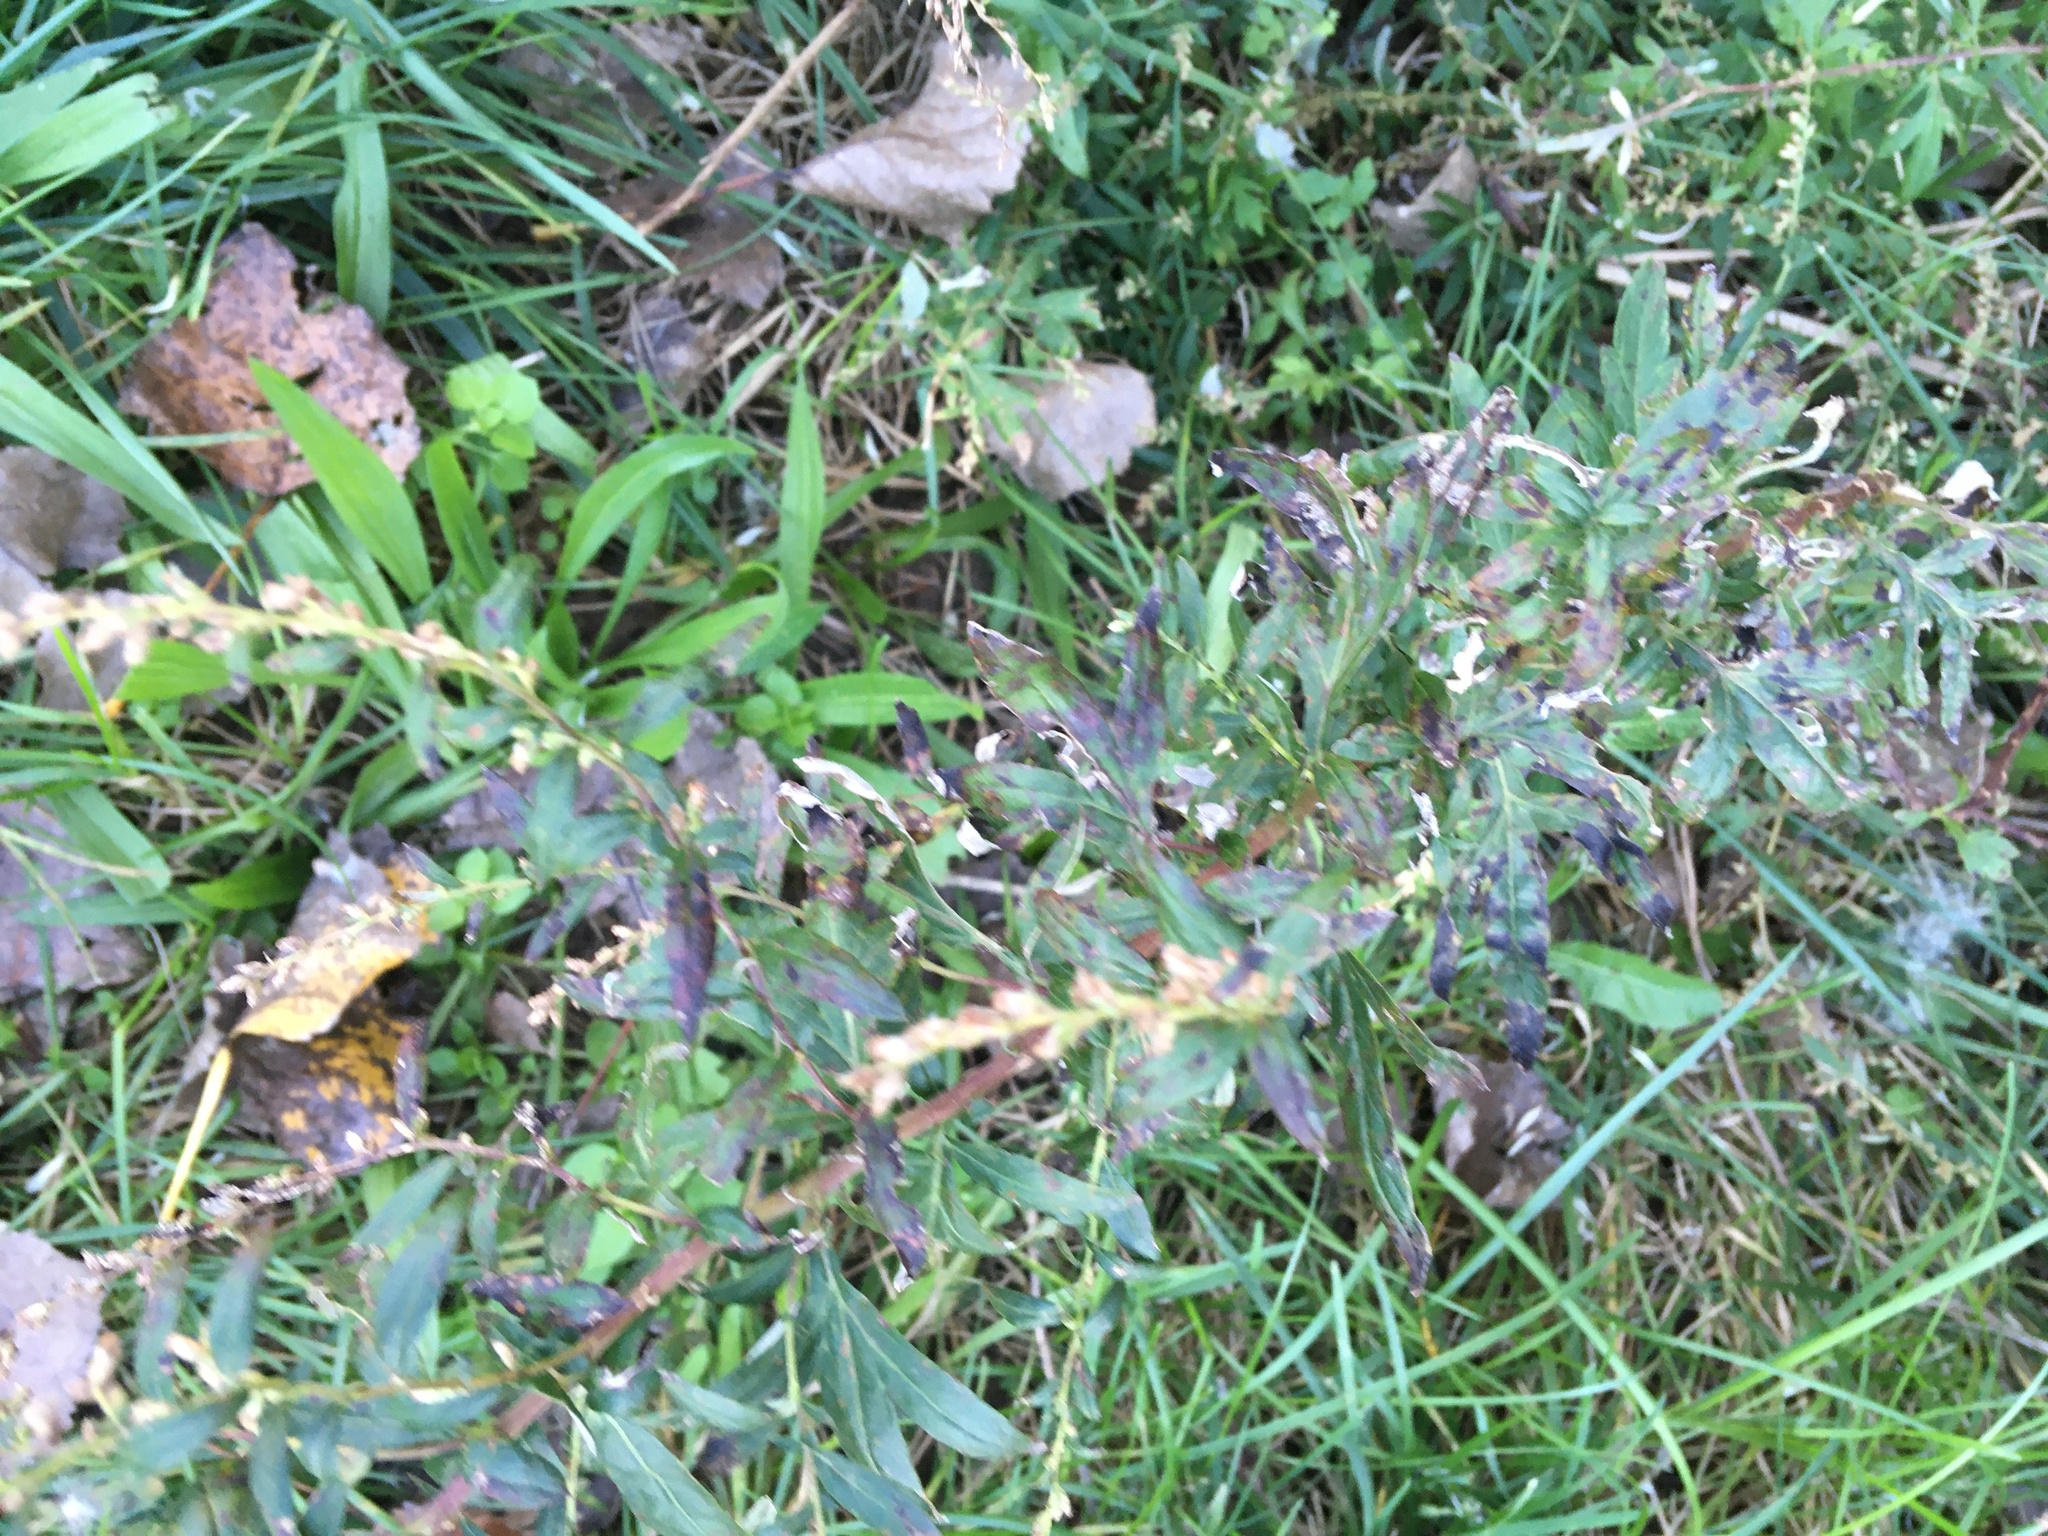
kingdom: Plantae
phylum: Tracheophyta
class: Magnoliopsida
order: Asterales
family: Asteraceae
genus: Artemisia
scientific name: Artemisia vulgaris
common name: Mugwort
